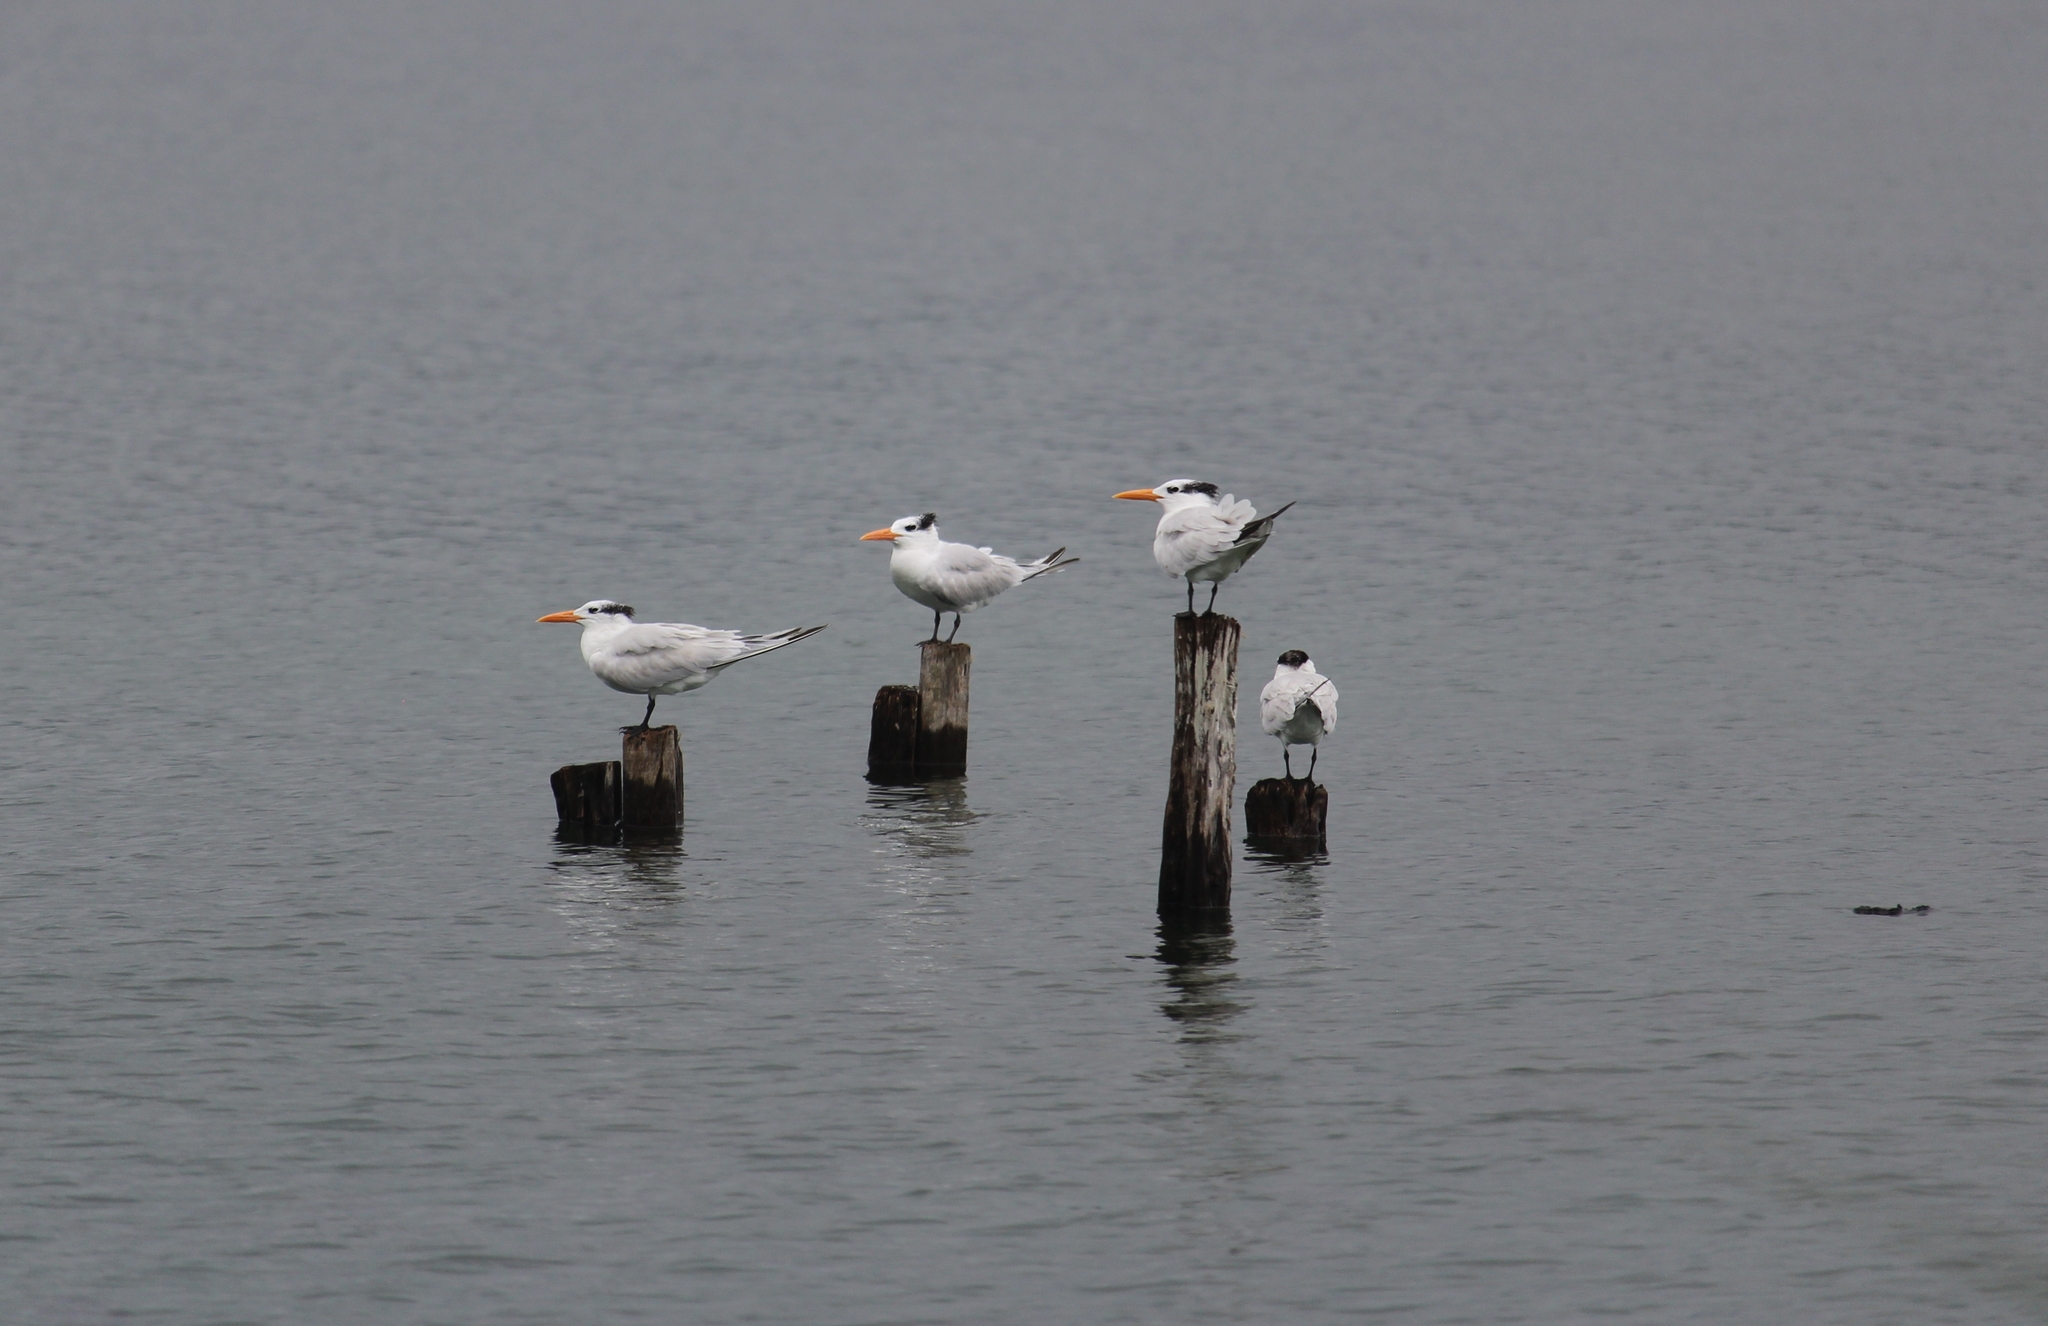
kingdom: Animalia
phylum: Chordata
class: Aves
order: Charadriiformes
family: Laridae
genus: Thalasseus
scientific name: Thalasseus maximus
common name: Royal tern
